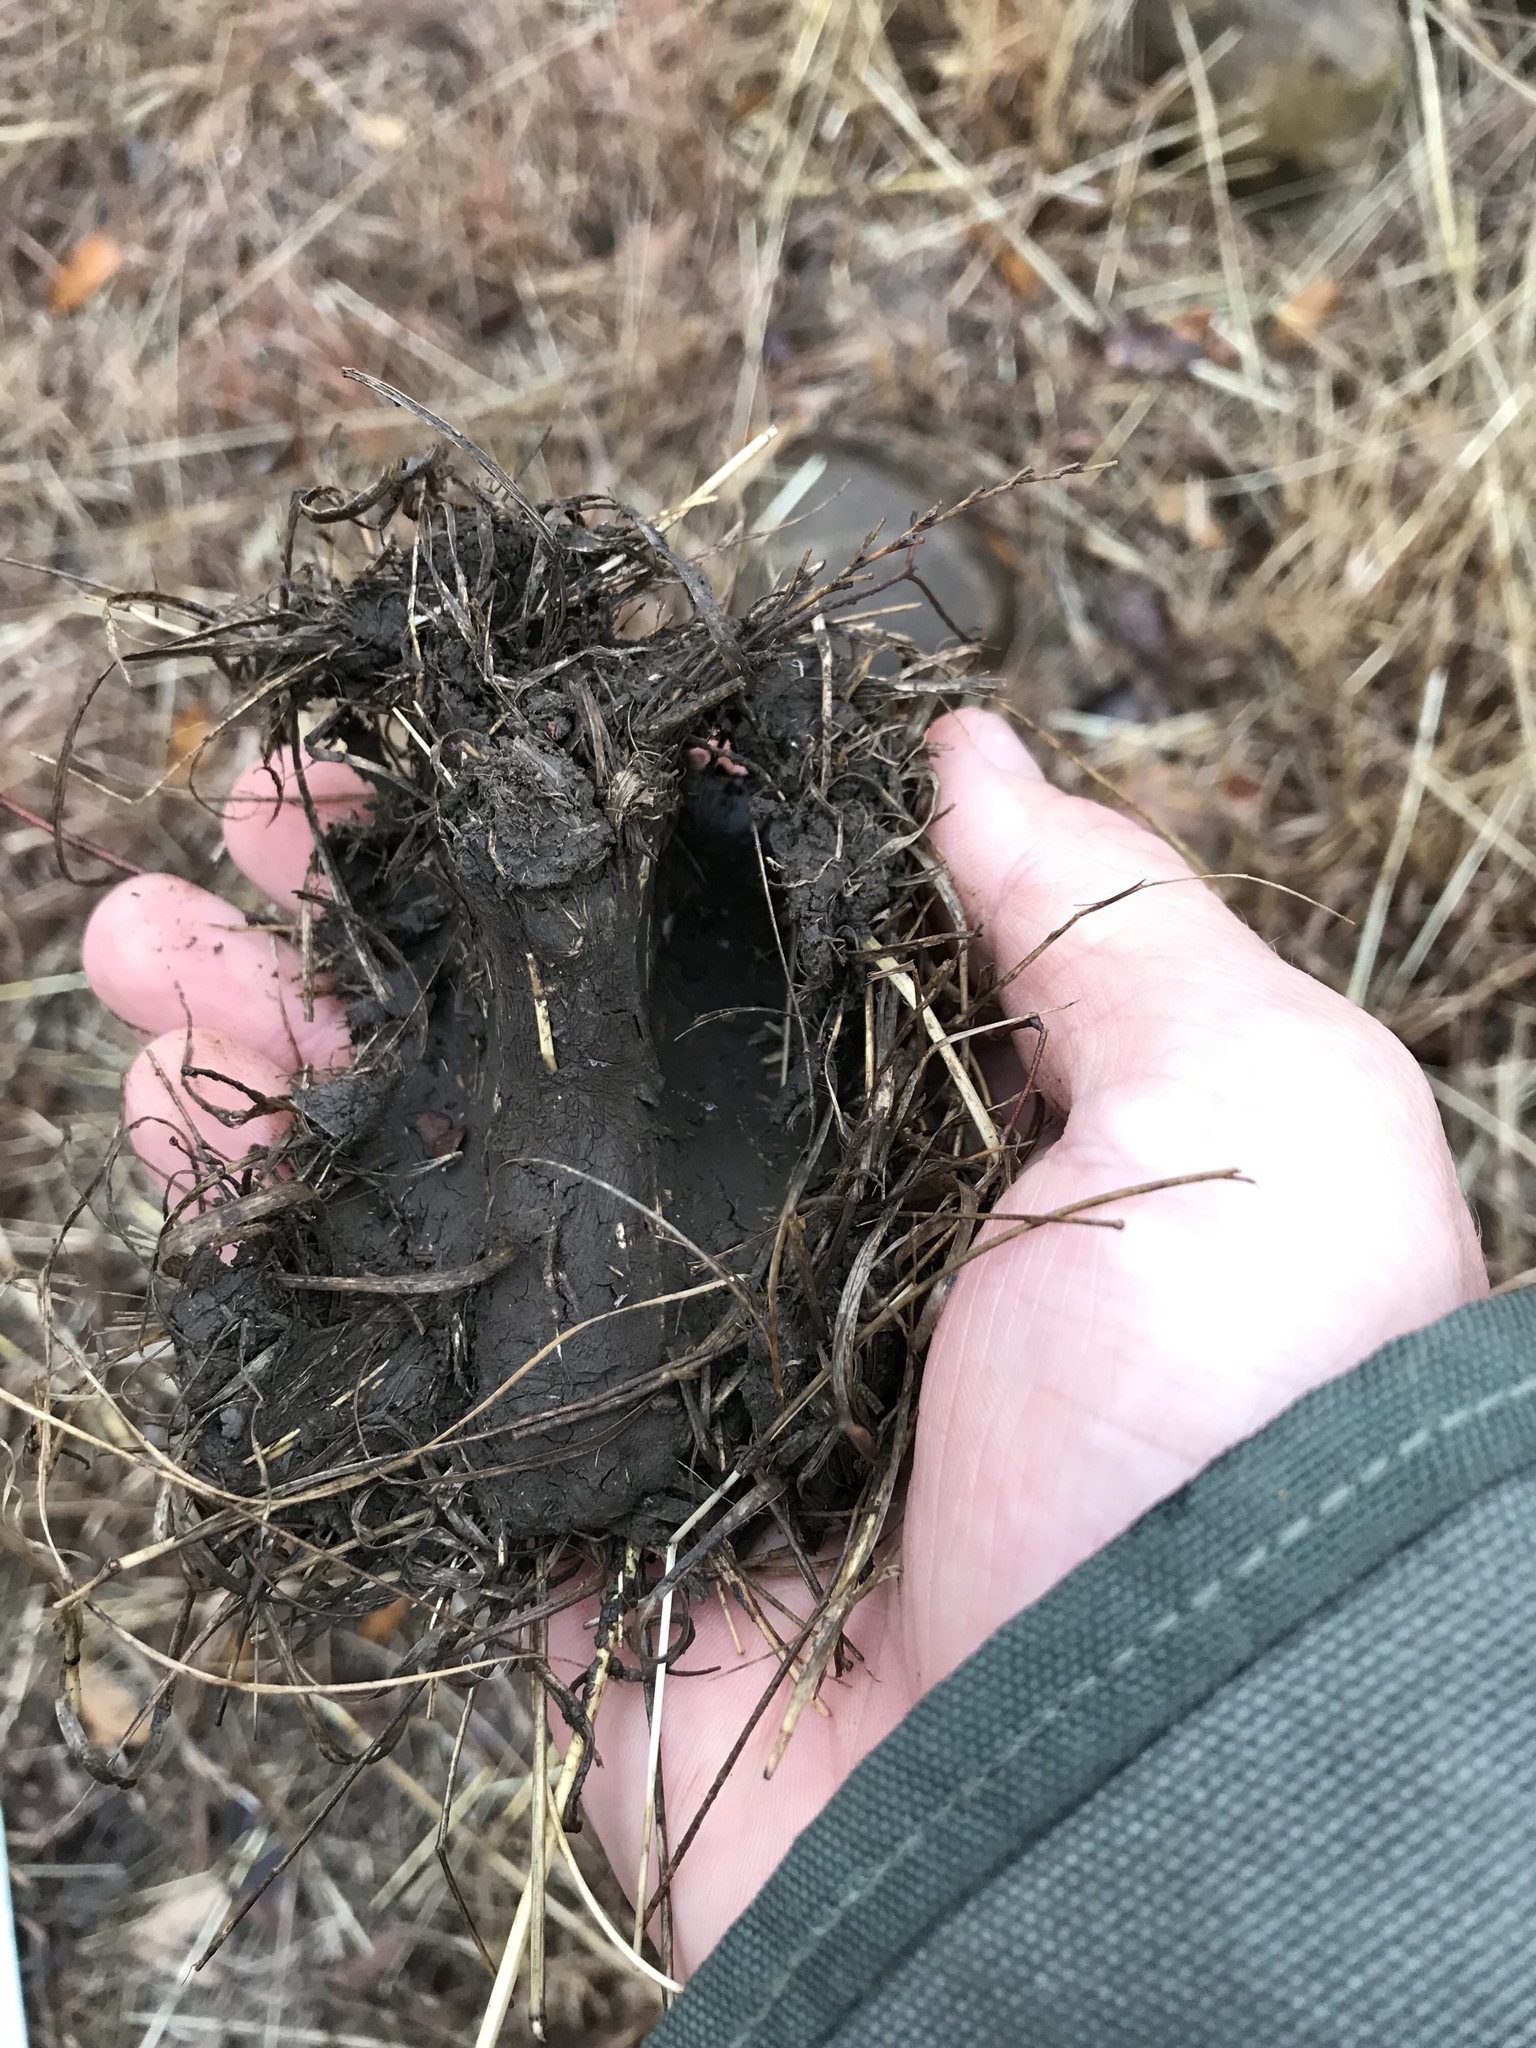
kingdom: Animalia
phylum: Chordata
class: Mammalia
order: Artiodactyla
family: Cervidae
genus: Odocoileus
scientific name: Odocoileus virginianus
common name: White-tailed deer
